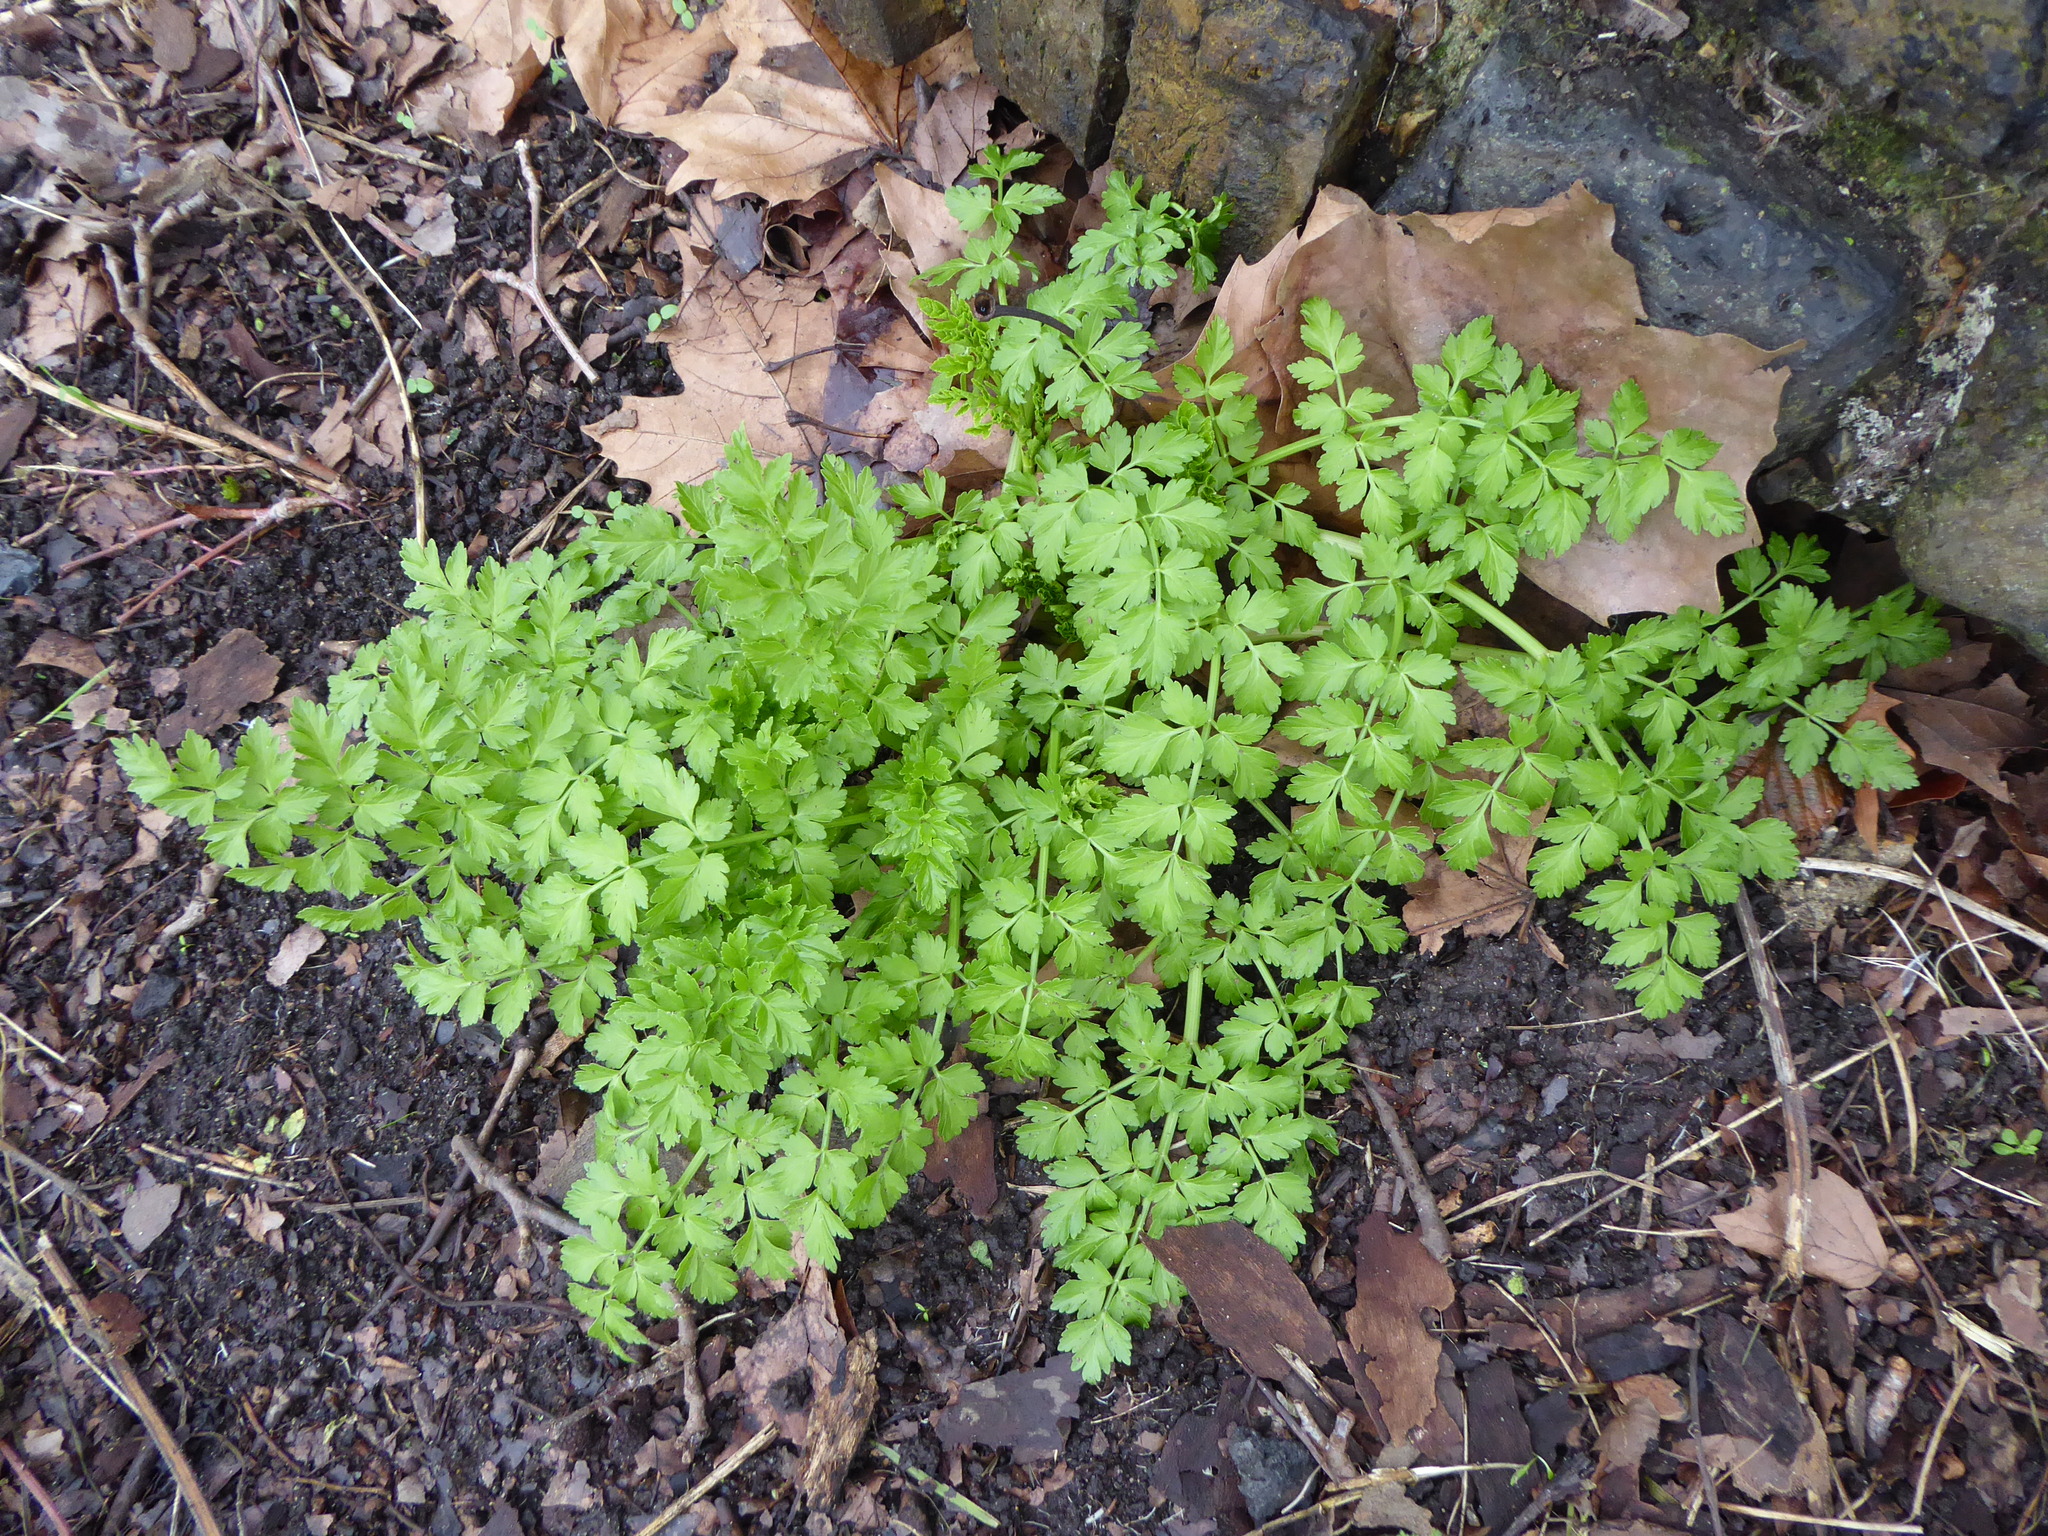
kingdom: Plantae
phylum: Tracheophyta
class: Magnoliopsida
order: Apiales
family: Apiaceae
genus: Anthriscus
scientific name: Anthriscus sylvestris
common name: Cow parsley
